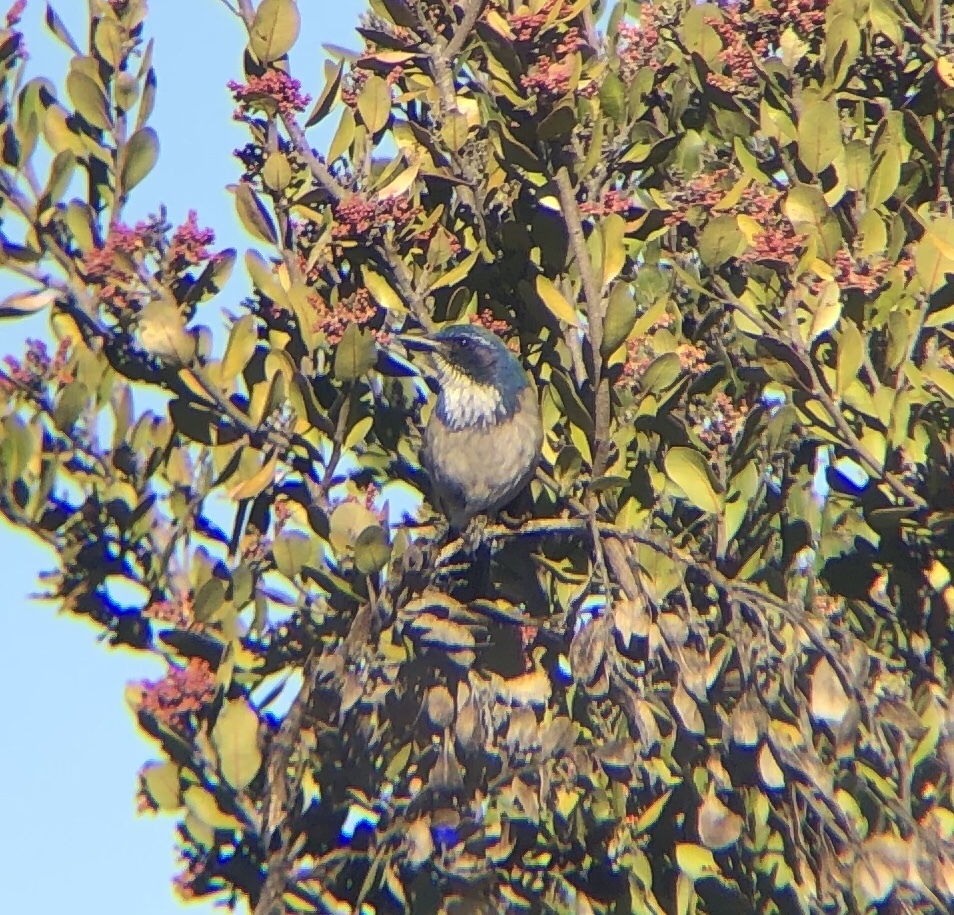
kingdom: Animalia
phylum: Chordata
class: Aves
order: Passeriformes
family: Corvidae
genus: Aphelocoma
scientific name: Aphelocoma californica
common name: California scrub-jay
